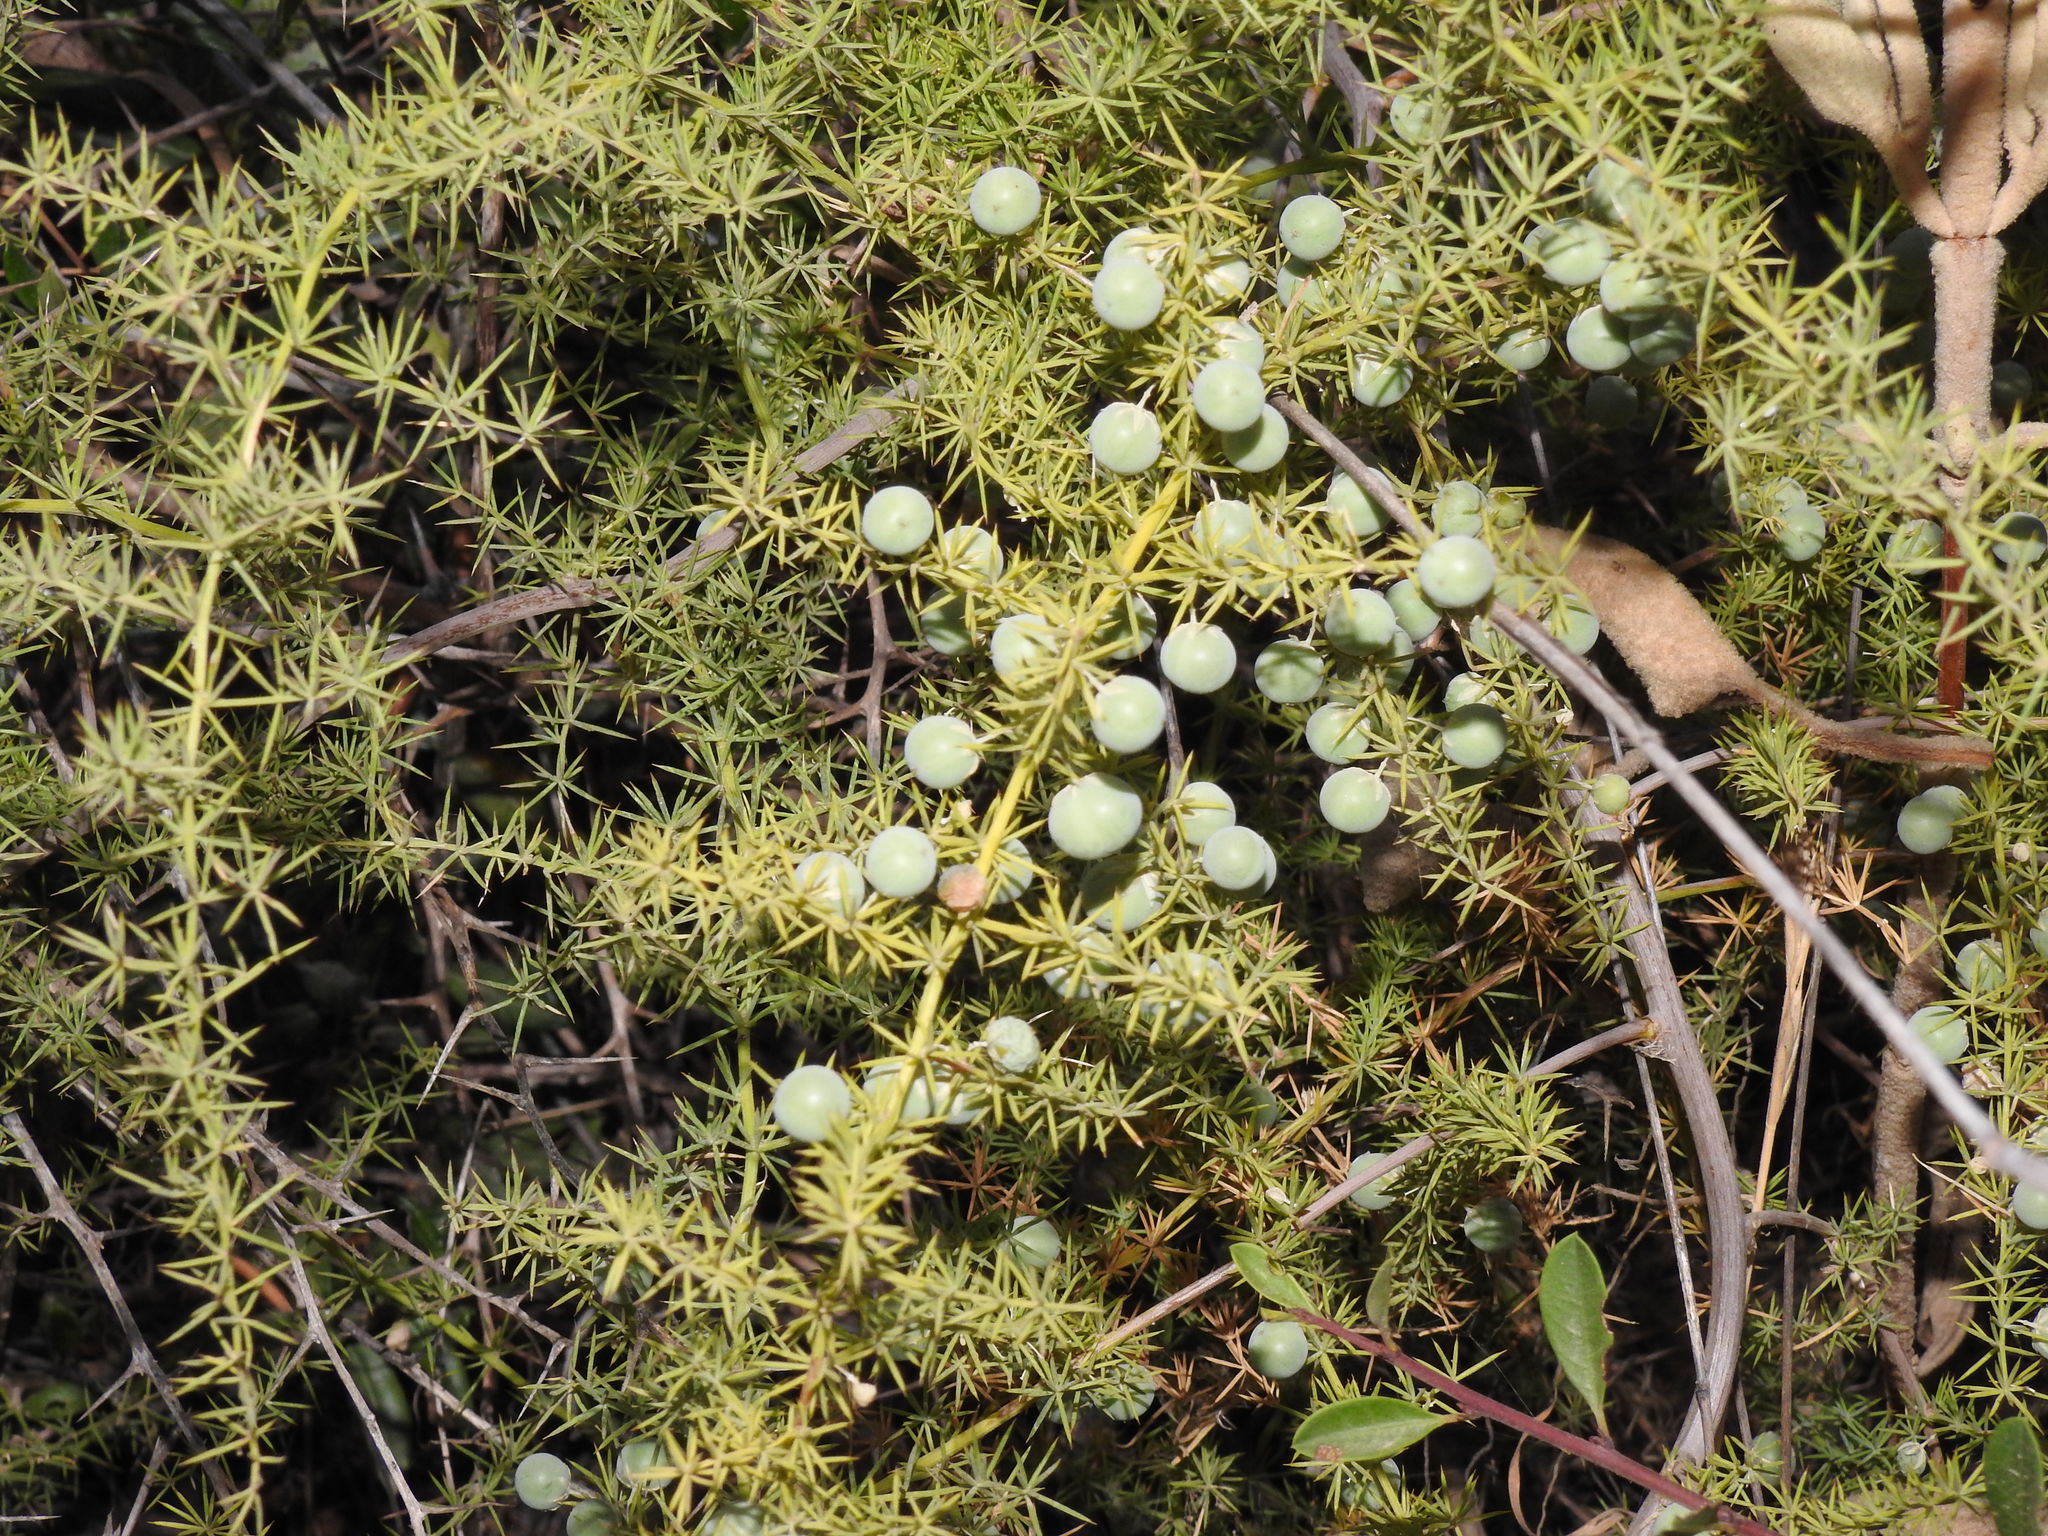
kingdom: Plantae
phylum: Tracheophyta
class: Liliopsida
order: Asparagales
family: Asparagaceae
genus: Asparagus
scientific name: Asparagus acutifolius
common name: Wild asparagus
